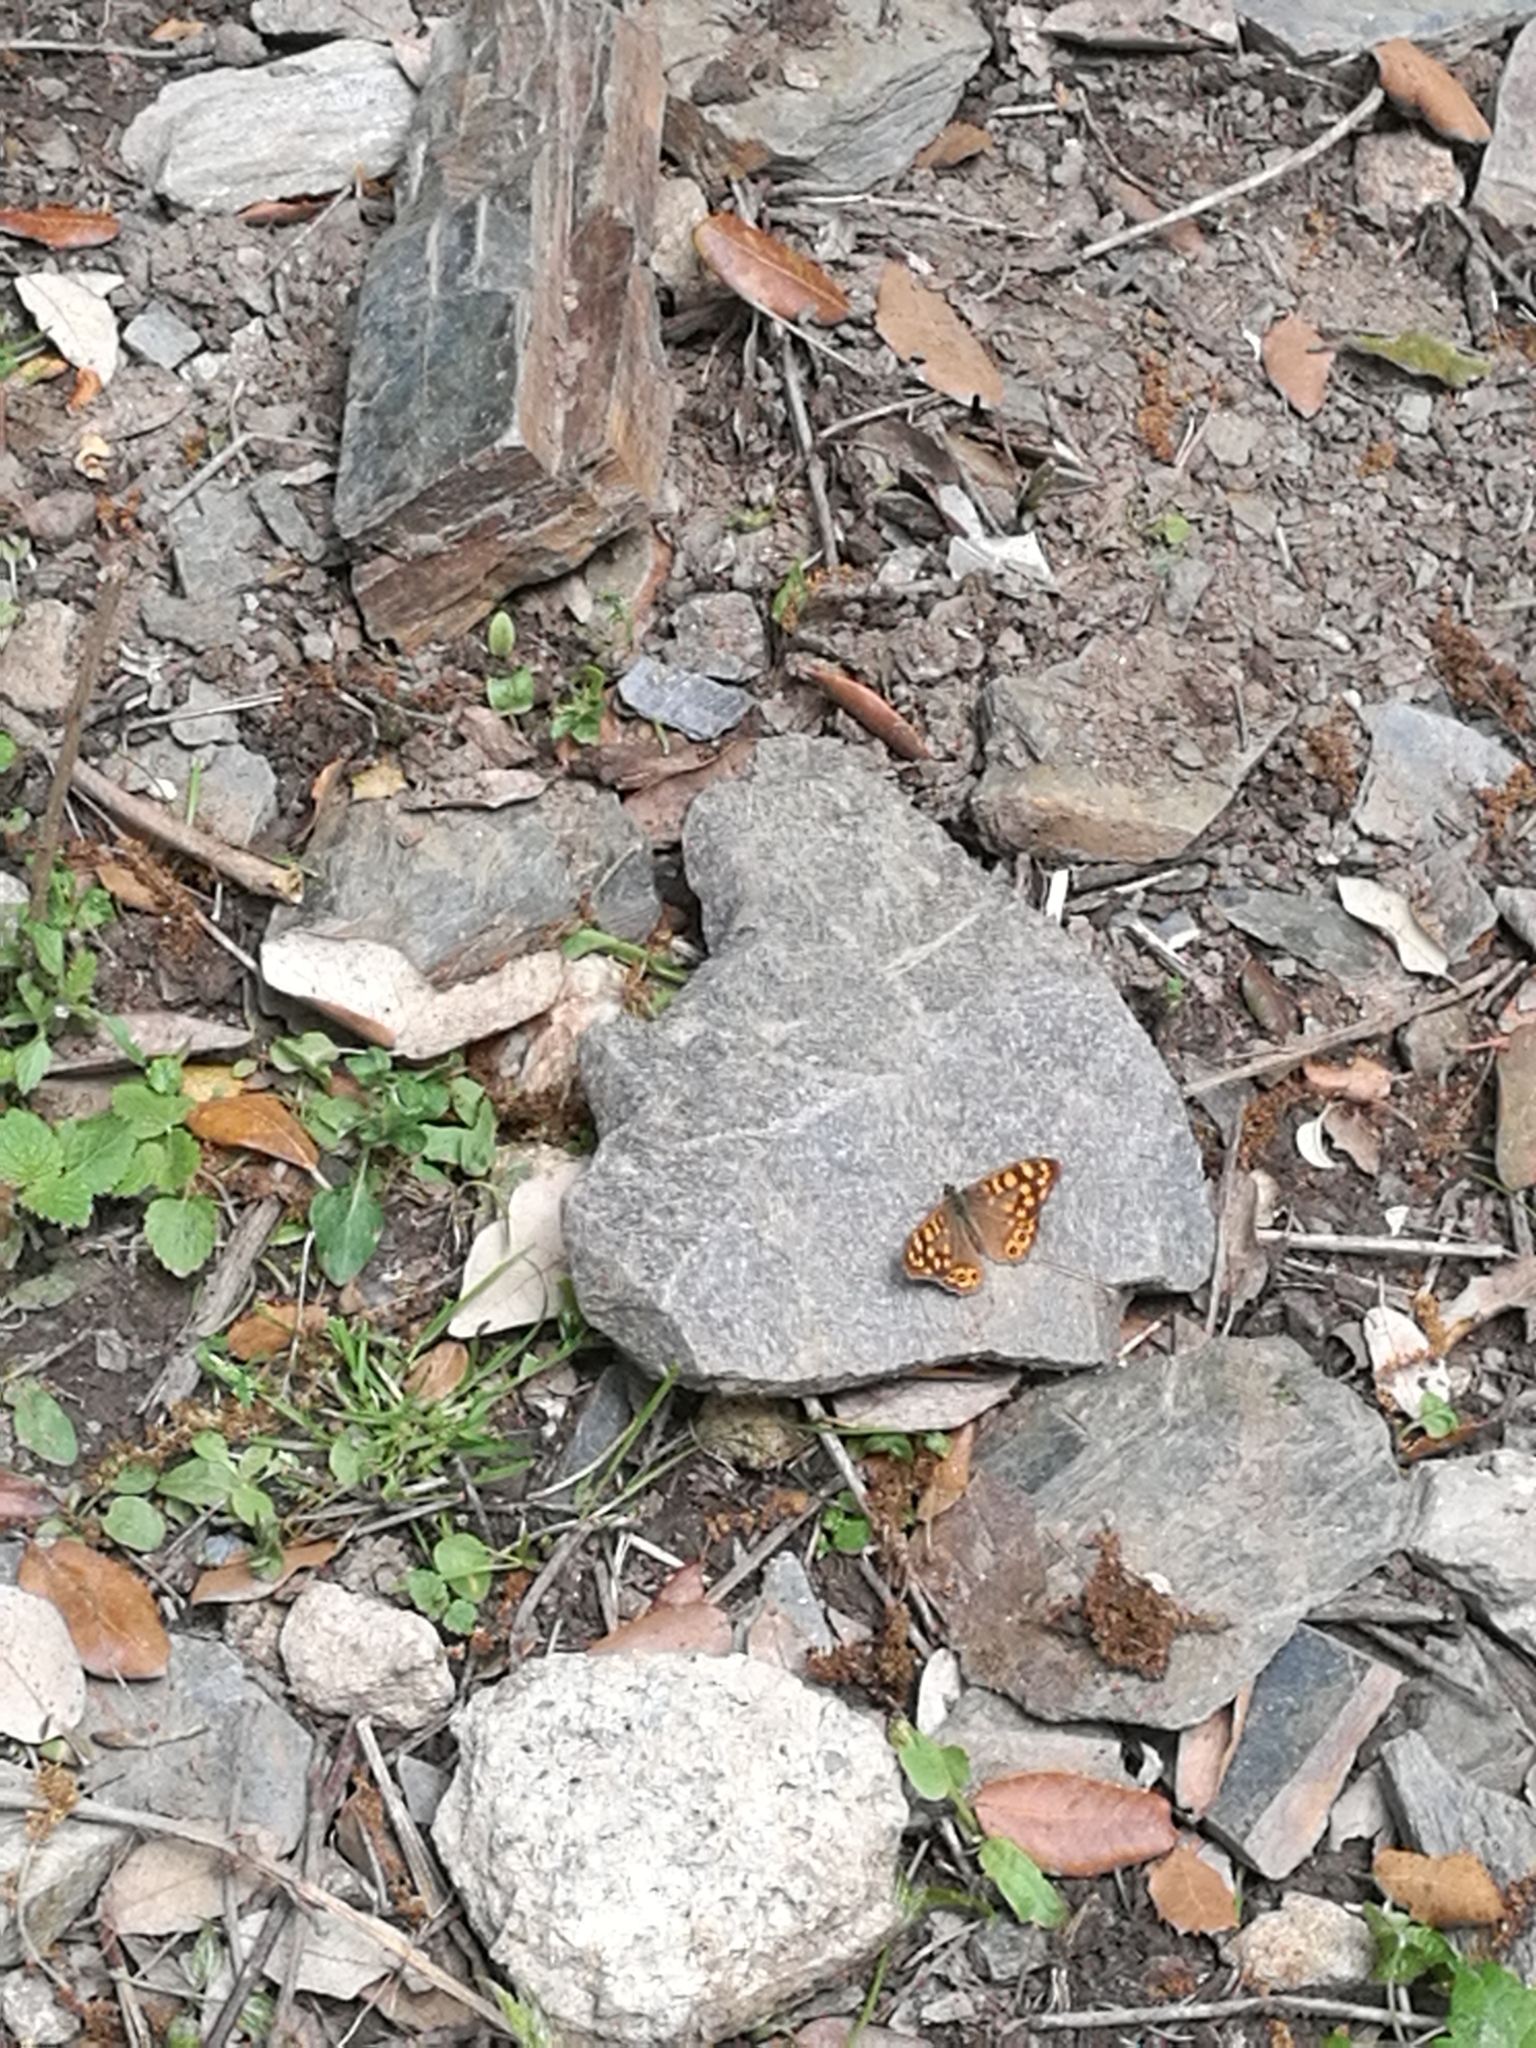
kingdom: Animalia
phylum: Arthropoda
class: Insecta
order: Lepidoptera
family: Nymphalidae
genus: Pararge
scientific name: Pararge aegeria
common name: Speckled wood
